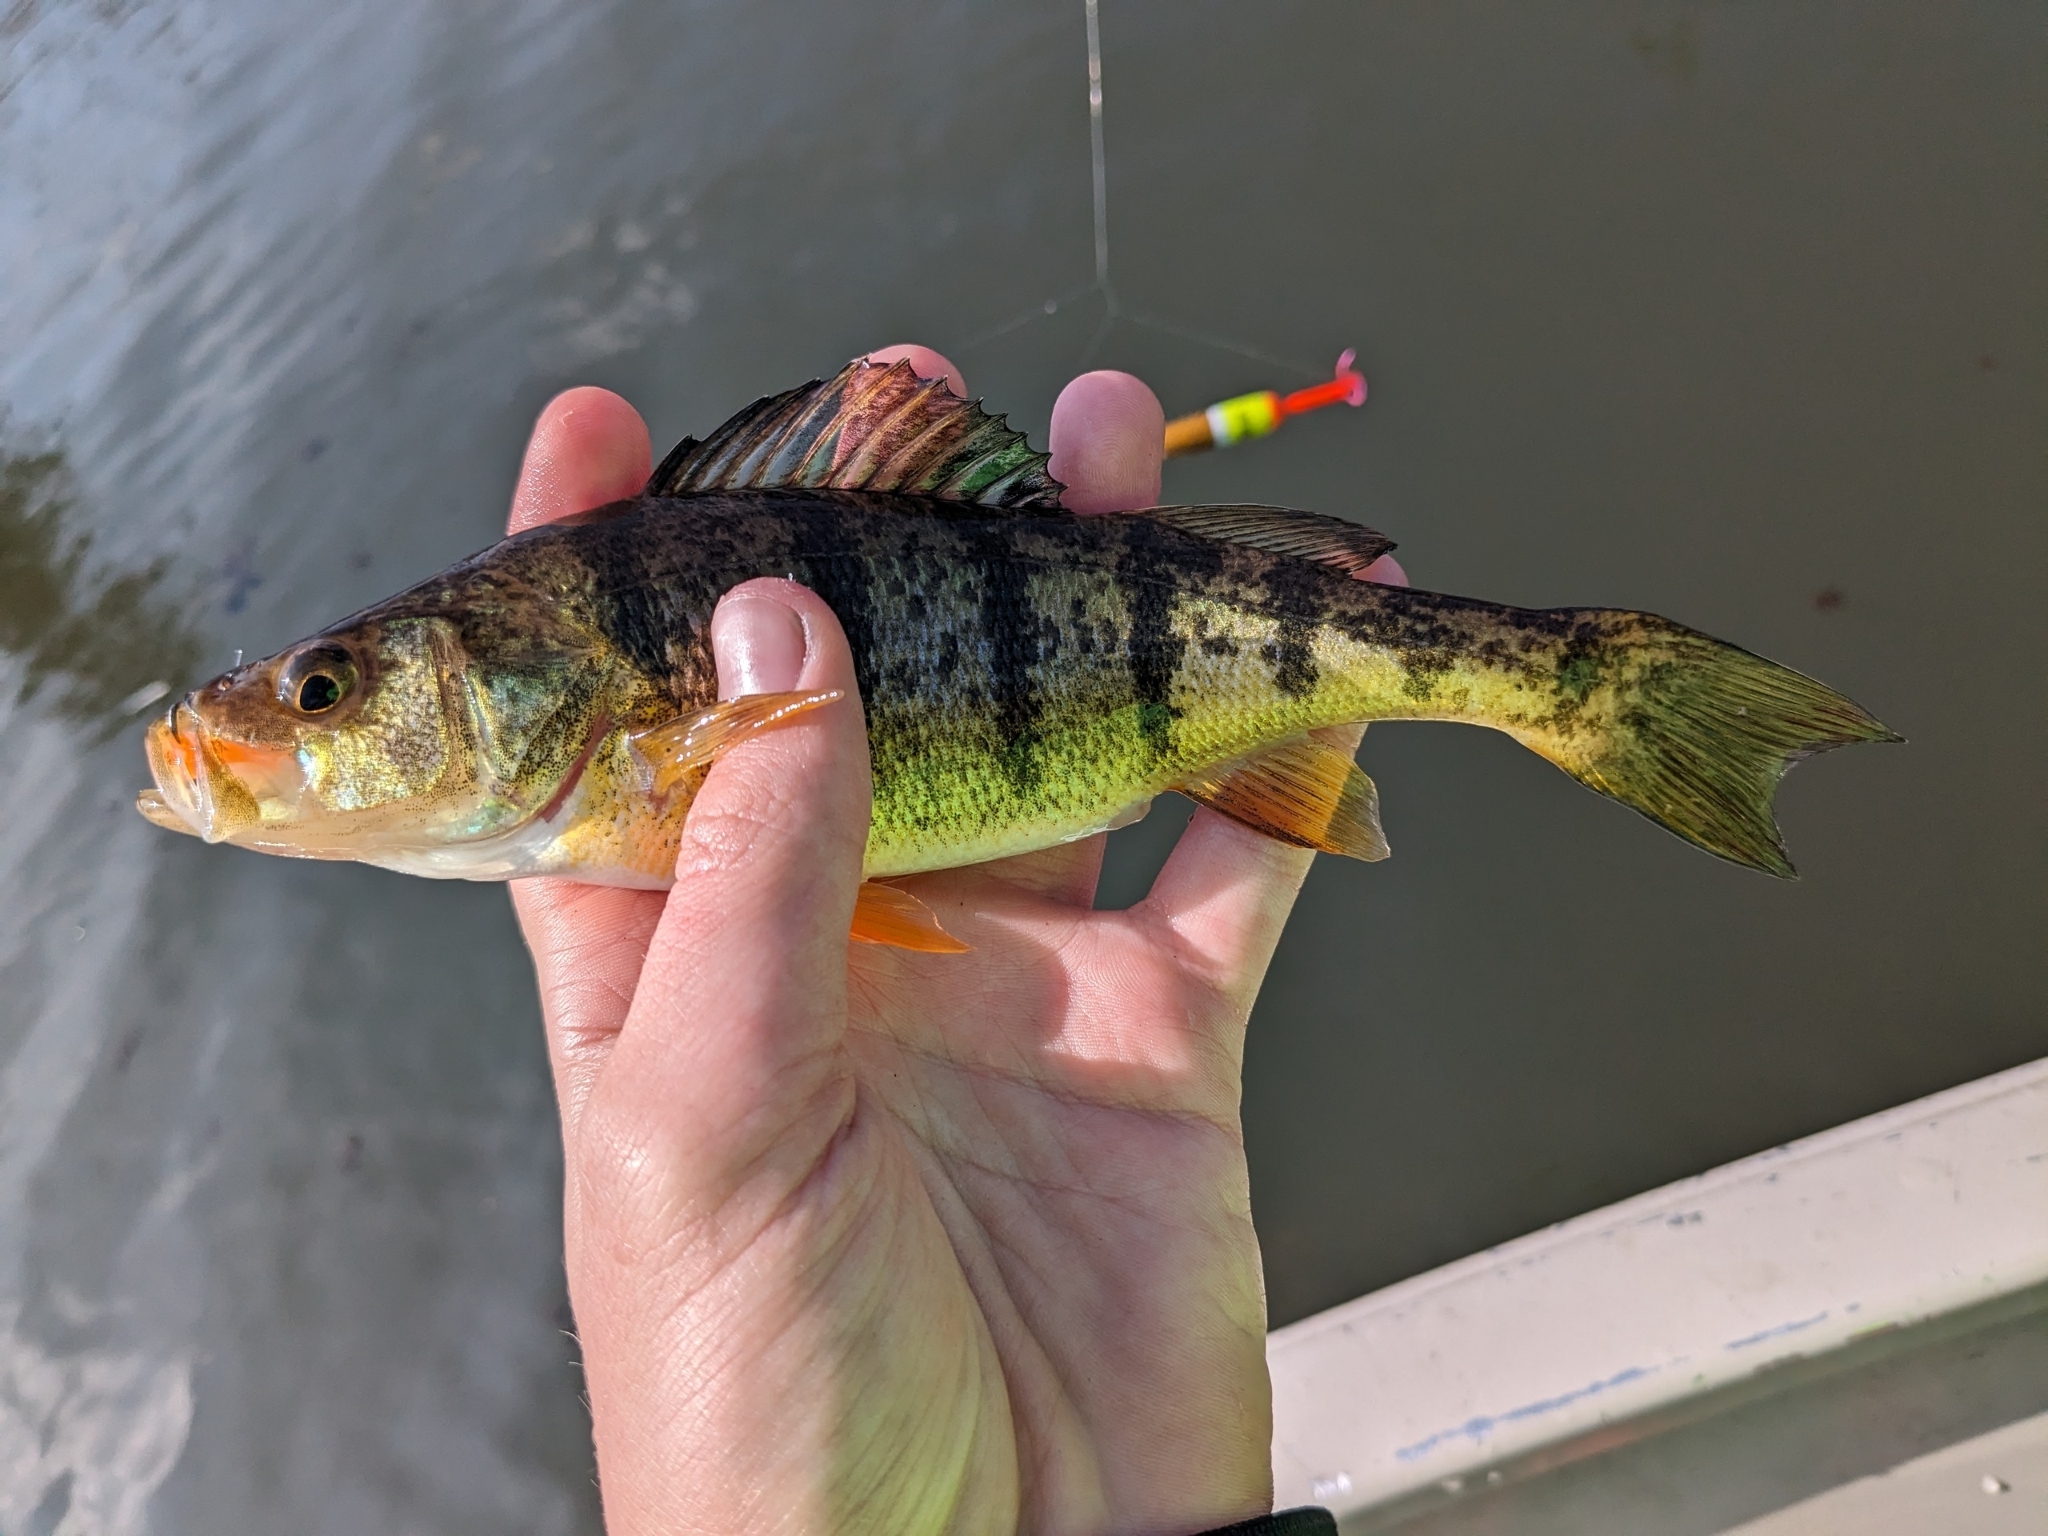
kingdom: Animalia
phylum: Chordata
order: Perciformes
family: Percidae
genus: Perca
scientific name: Perca flavescens
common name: Yellow perch
